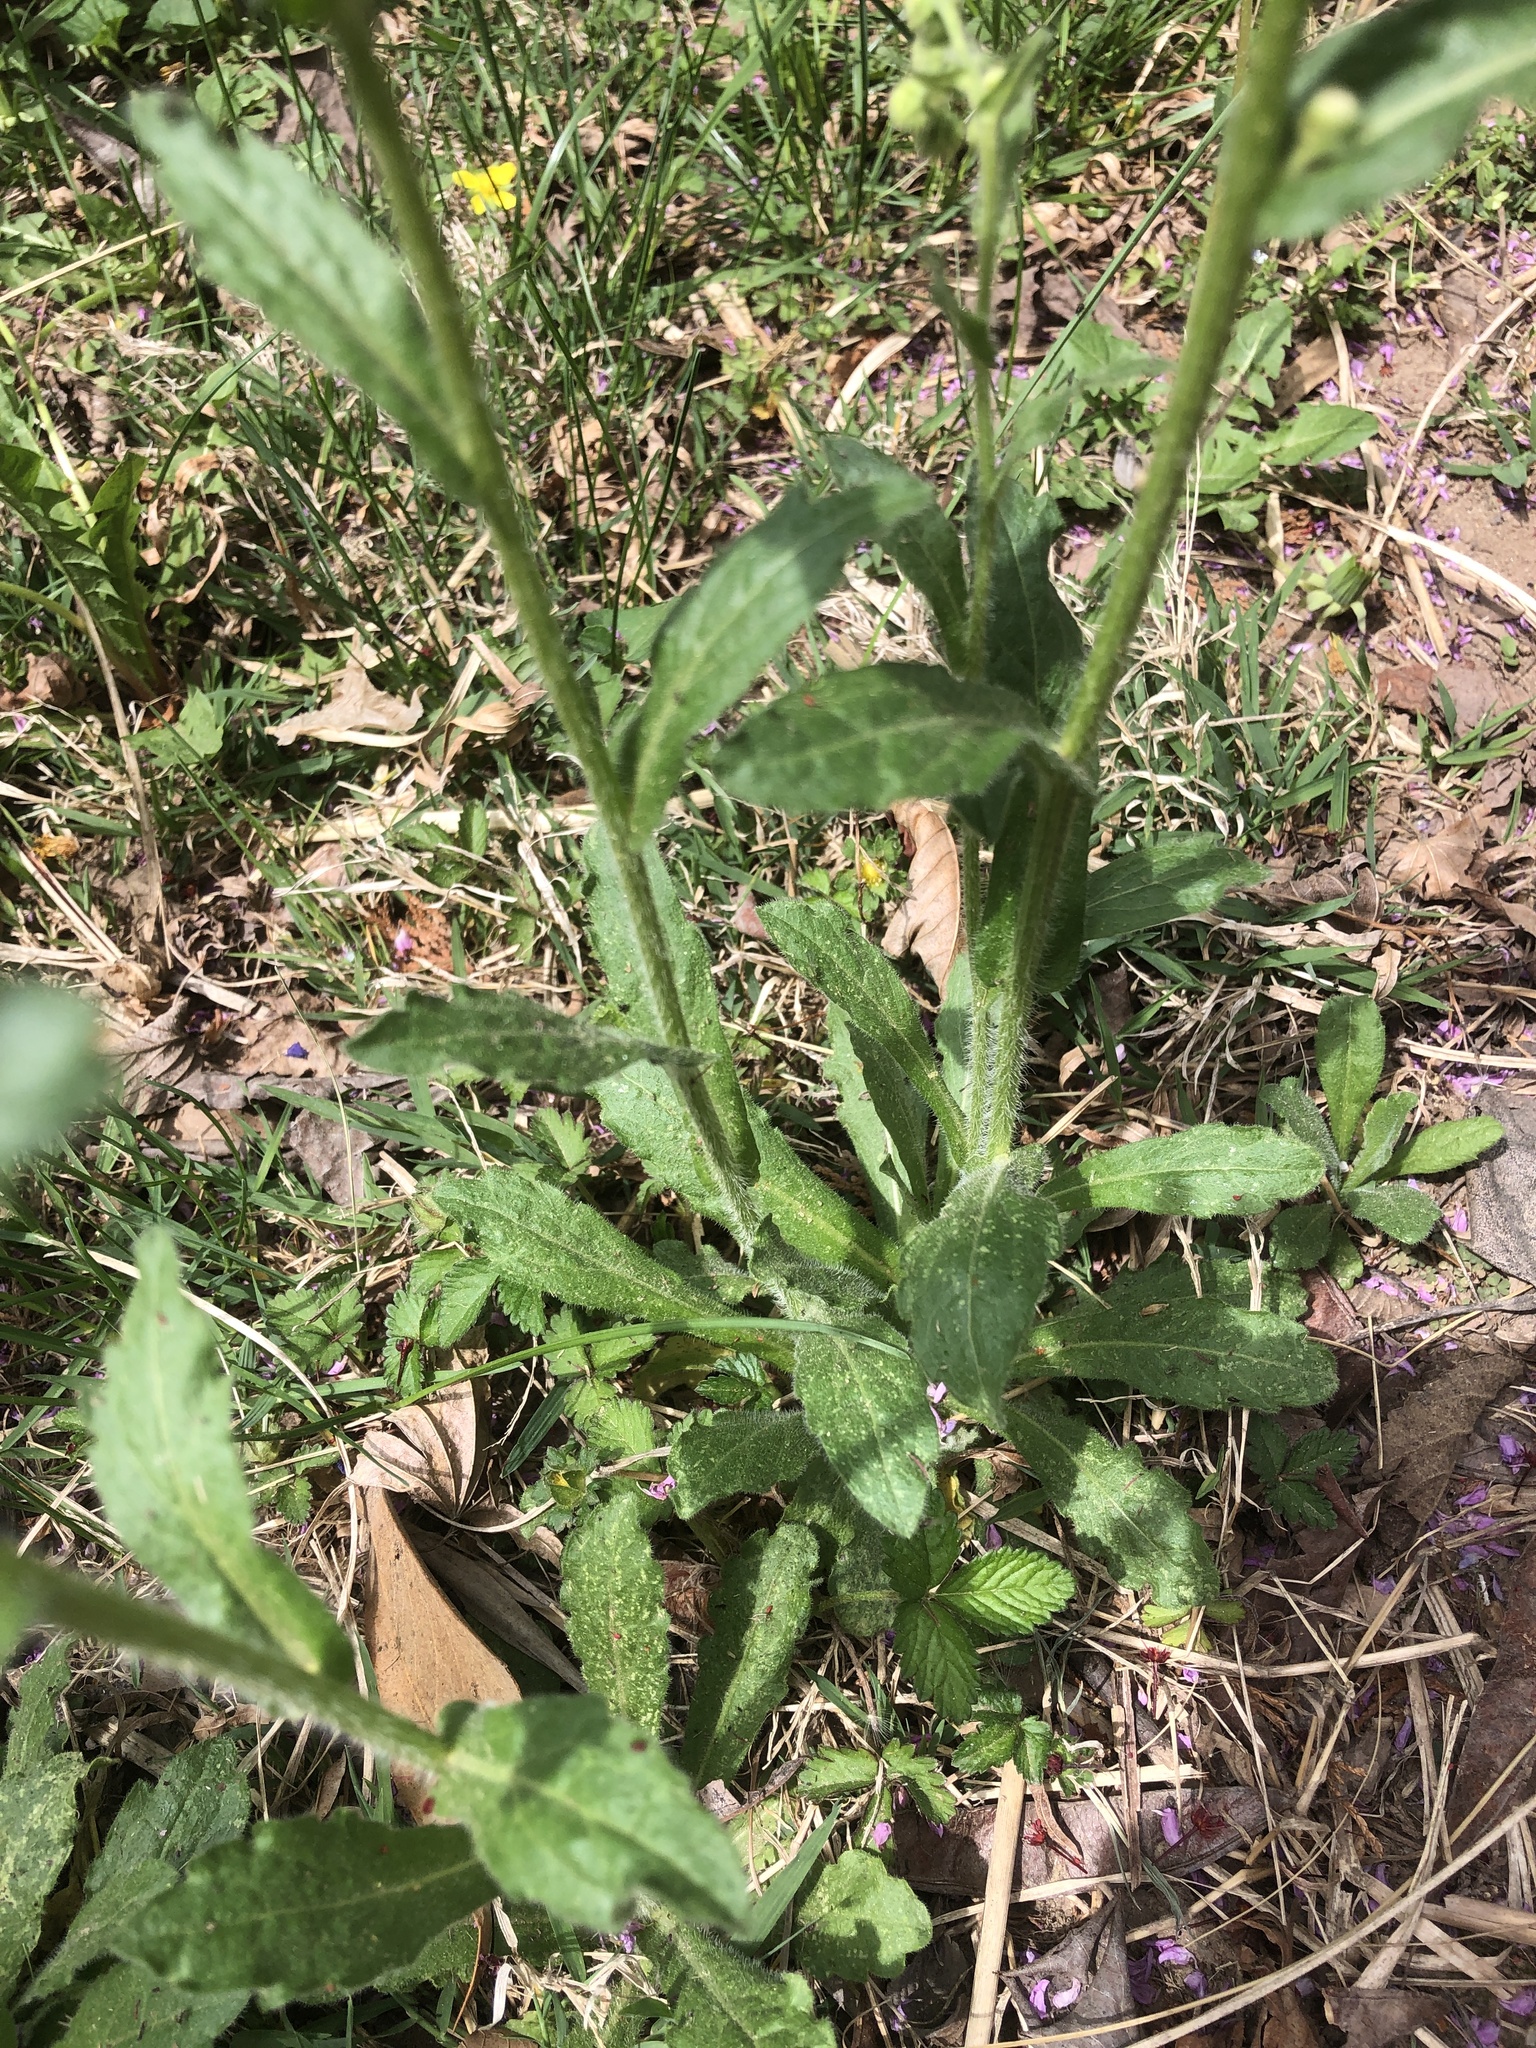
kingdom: Plantae
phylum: Tracheophyta
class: Magnoliopsida
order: Asterales
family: Asteraceae
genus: Erigeron
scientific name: Erigeron philadelphicus
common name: Robin's-plantain
